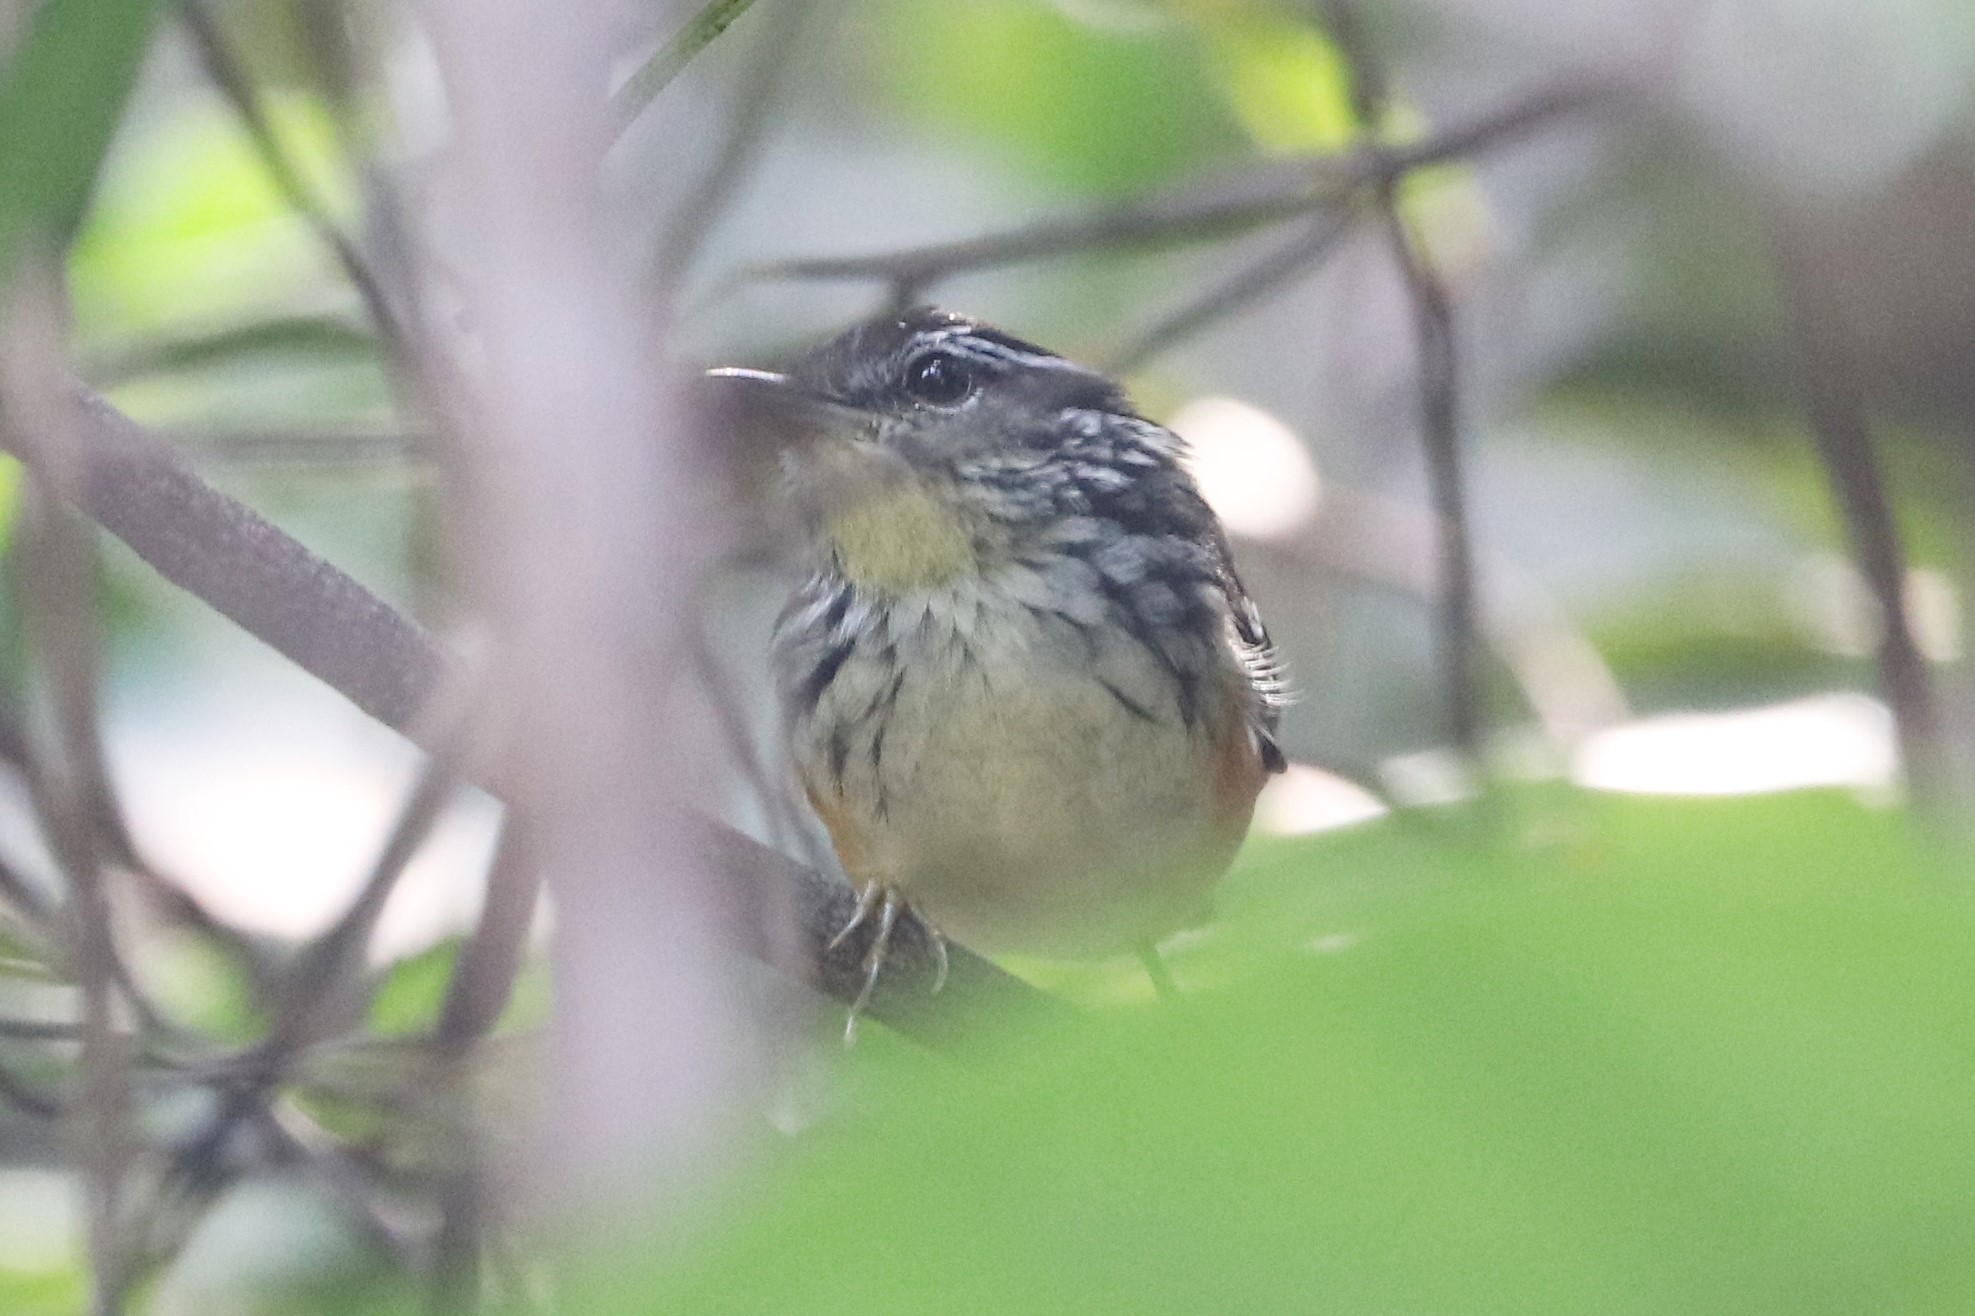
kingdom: Animalia
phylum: Chordata
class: Aves
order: Passeriformes
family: Thamnophilidae
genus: Hypocnemis
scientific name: Hypocnemis flavescens
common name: Imeri warbling-antbird
